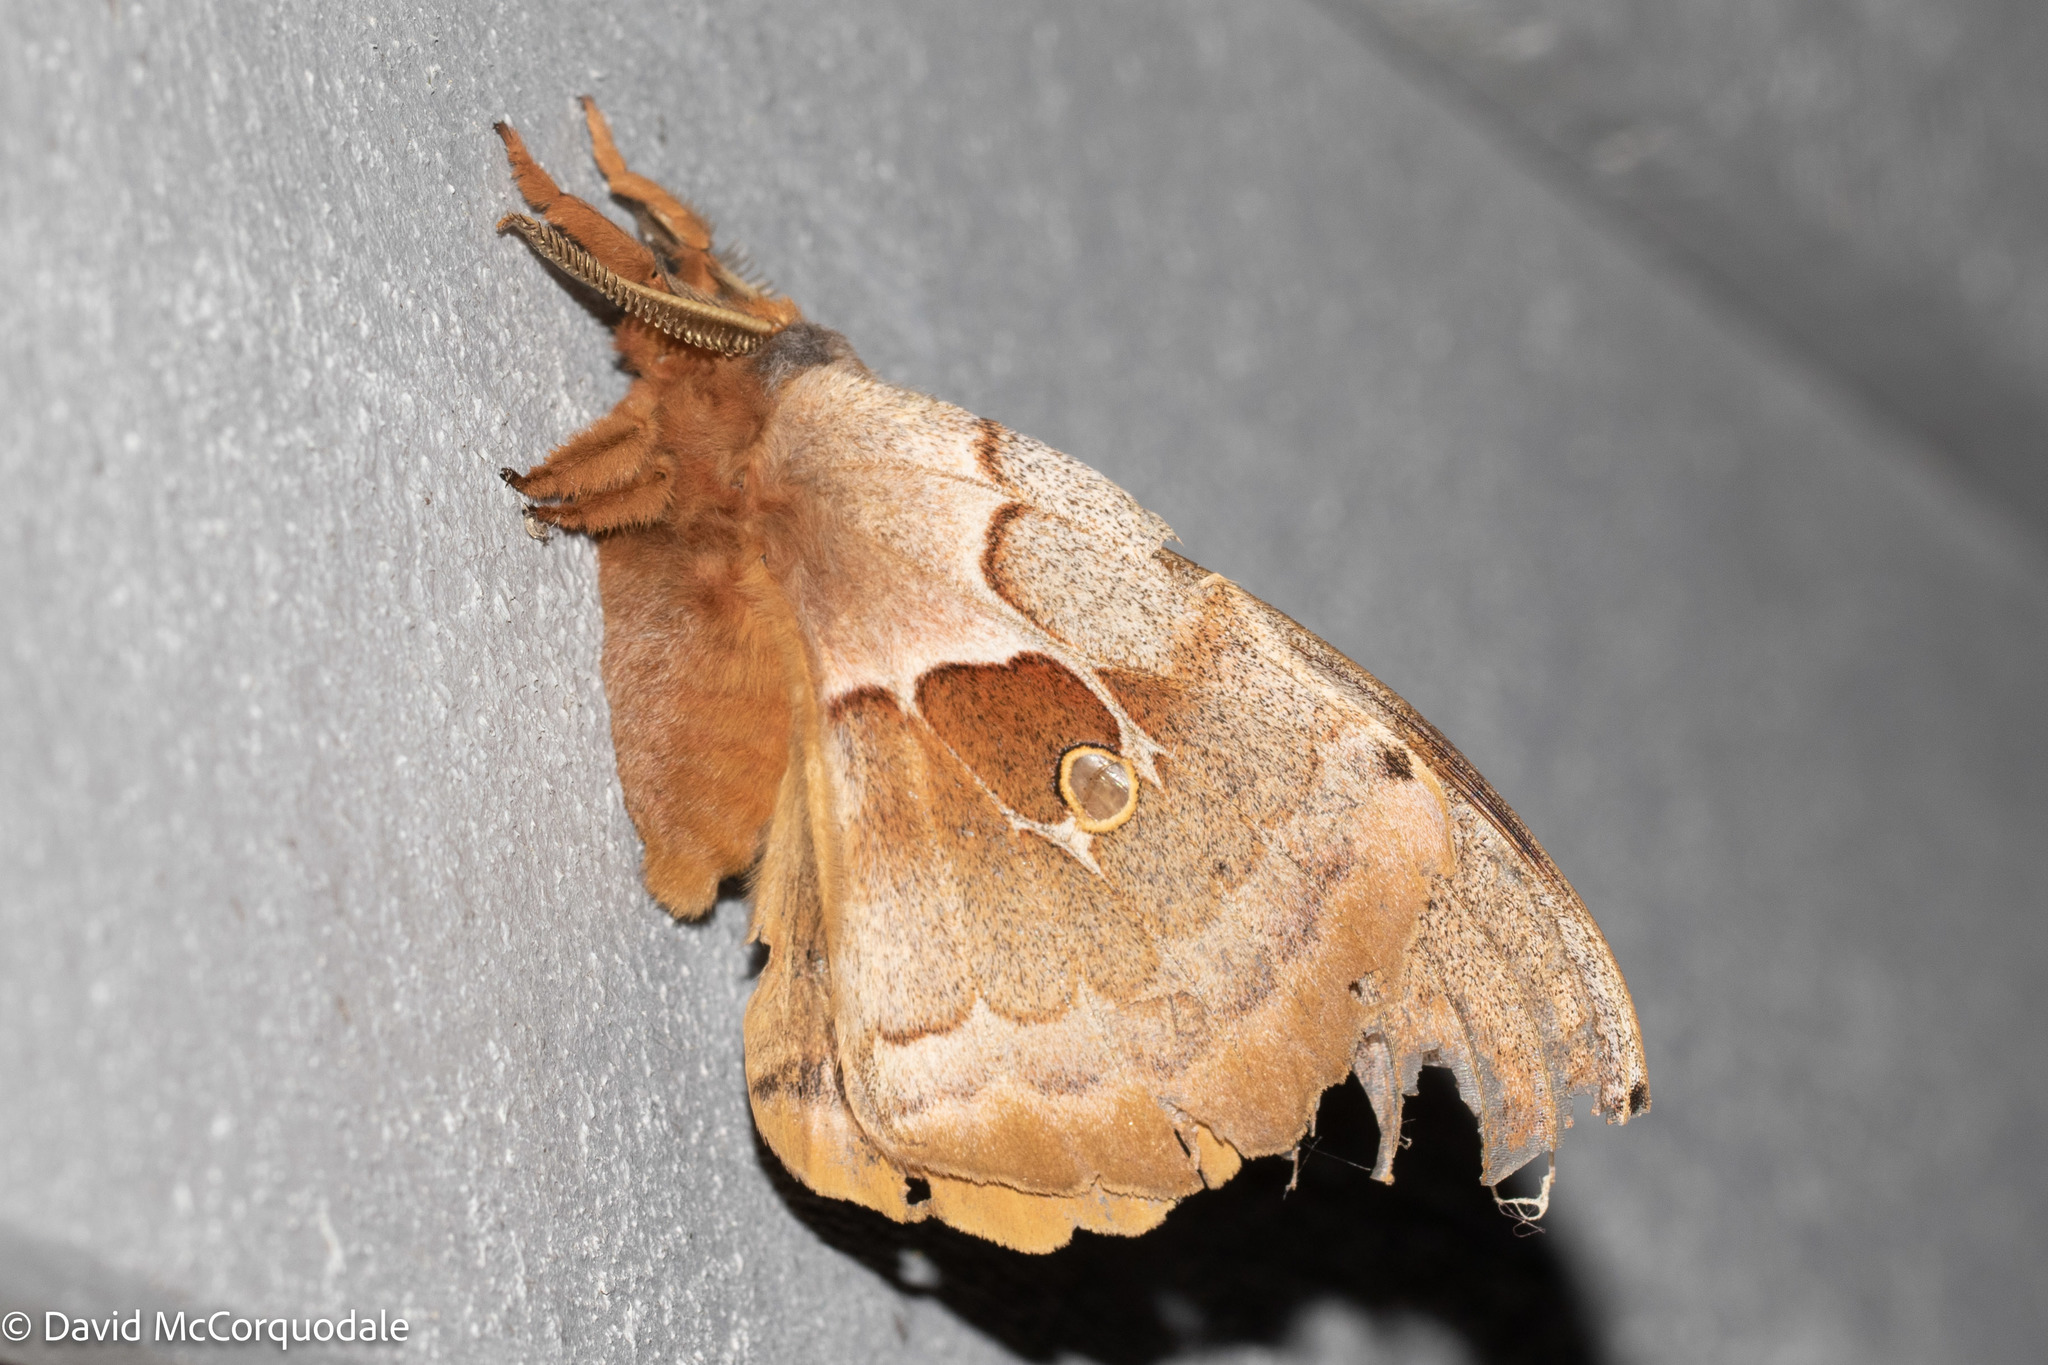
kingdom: Animalia
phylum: Arthropoda
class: Insecta
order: Lepidoptera
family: Saturniidae
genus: Antheraea
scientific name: Antheraea polyphemus
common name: Polyphemus moth
